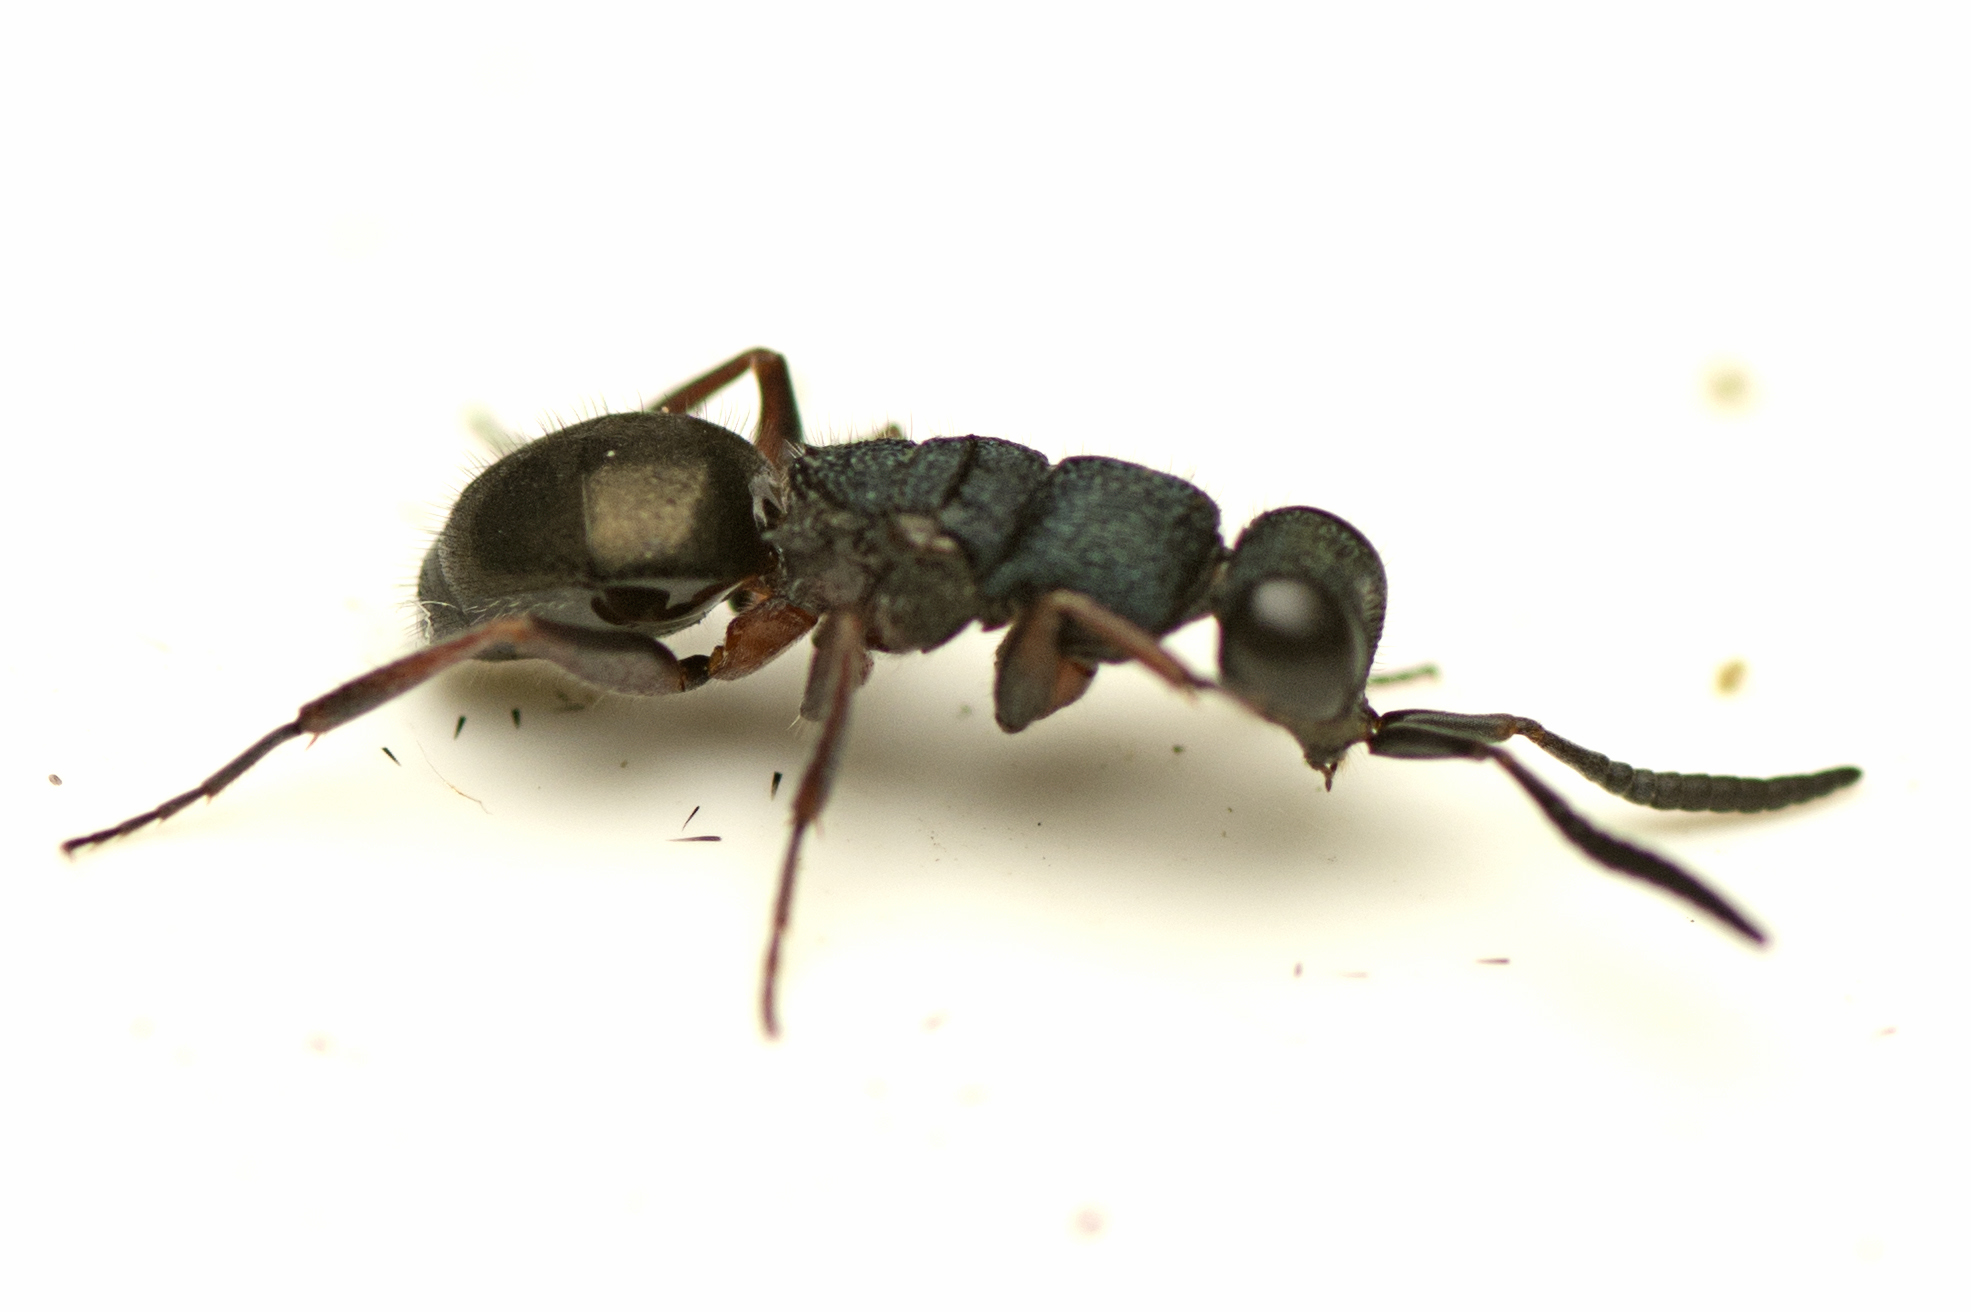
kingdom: Animalia
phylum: Arthropoda
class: Insecta
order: Hymenoptera
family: Chrysididae
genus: Myrmecomimesis
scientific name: Myrmecomimesis
